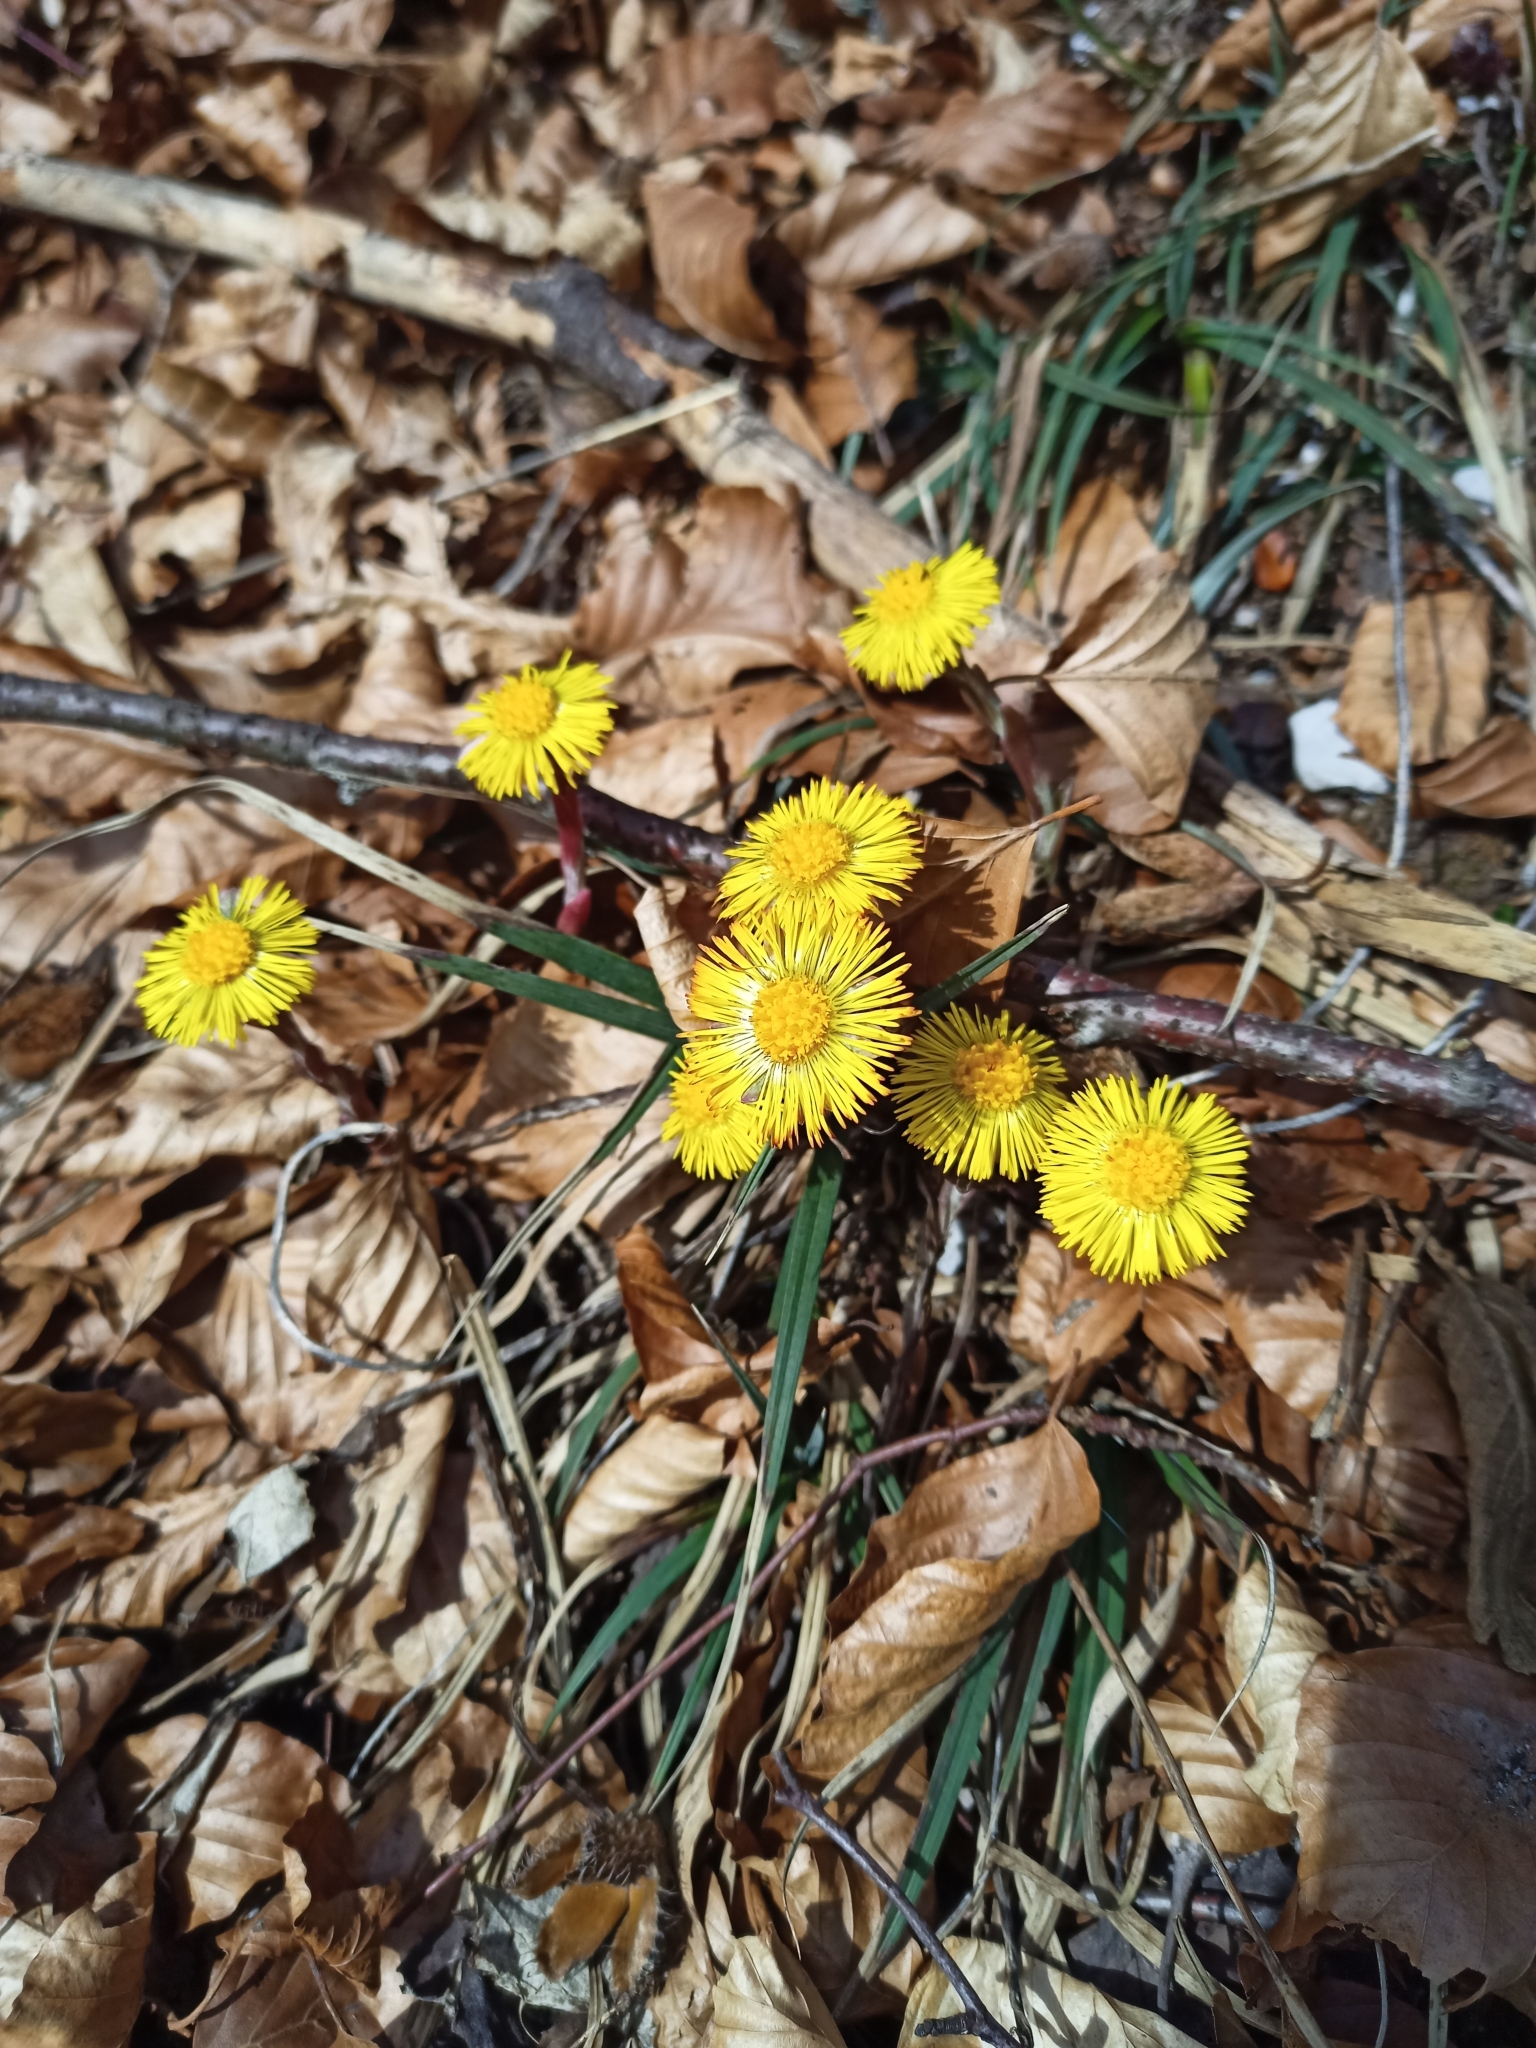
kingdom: Plantae
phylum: Tracheophyta
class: Magnoliopsida
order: Asterales
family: Asteraceae
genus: Tussilago
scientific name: Tussilago farfara
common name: Coltsfoot
